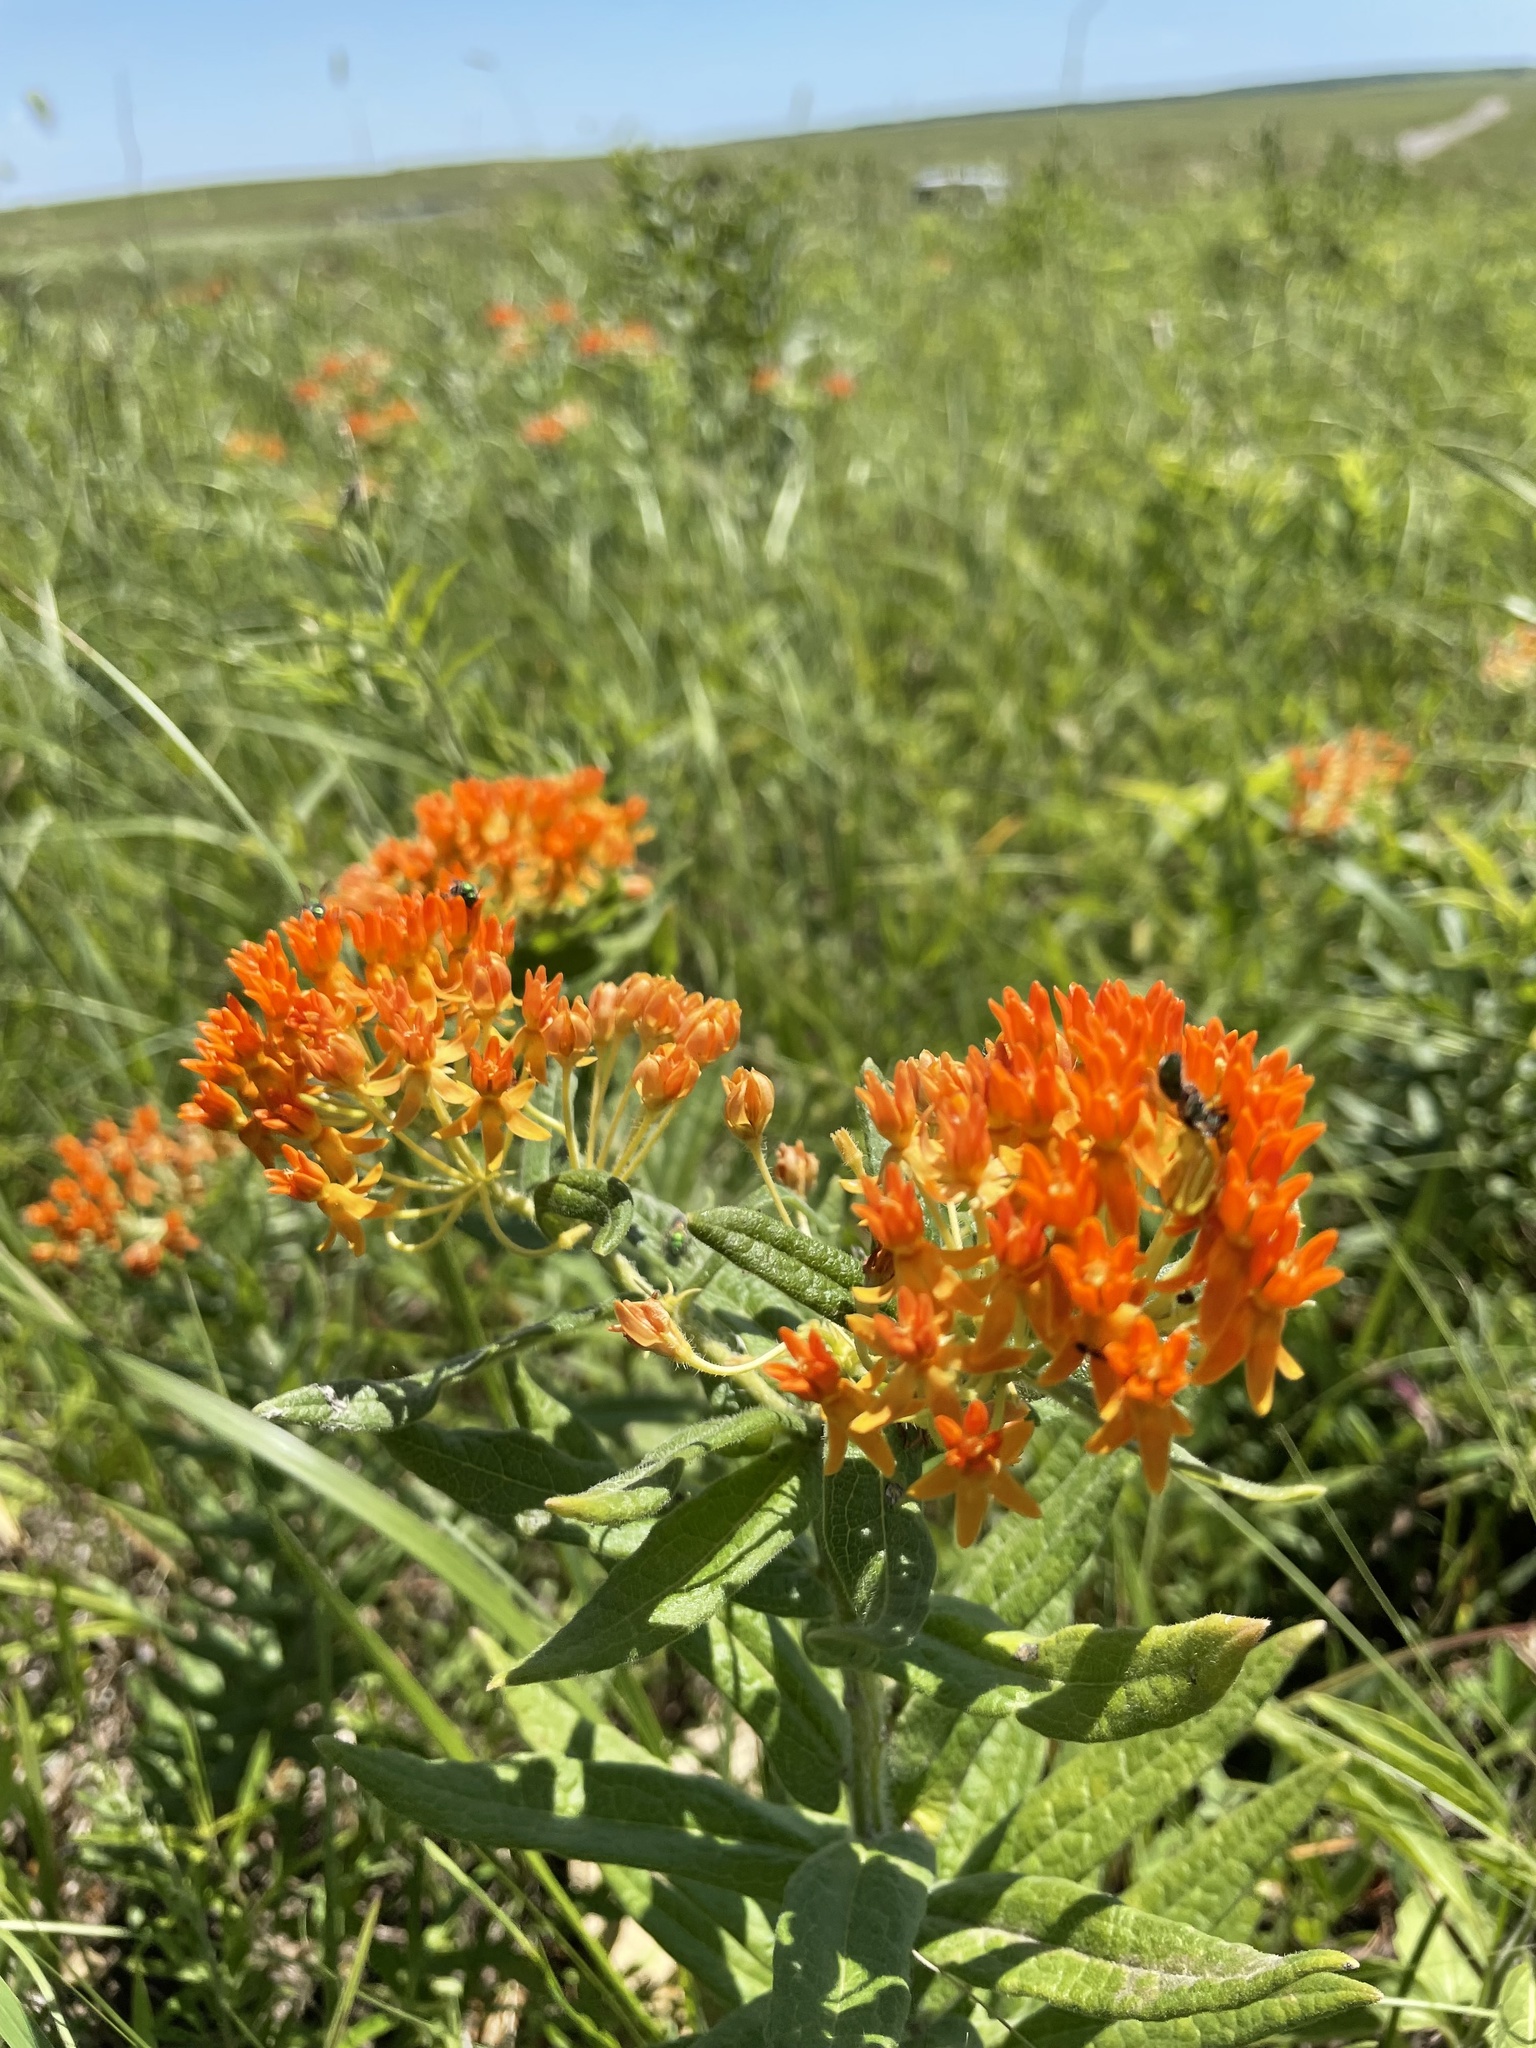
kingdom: Plantae
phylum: Tracheophyta
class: Magnoliopsida
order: Gentianales
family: Apocynaceae
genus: Asclepias
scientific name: Asclepias tuberosa
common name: Butterfly milkweed
